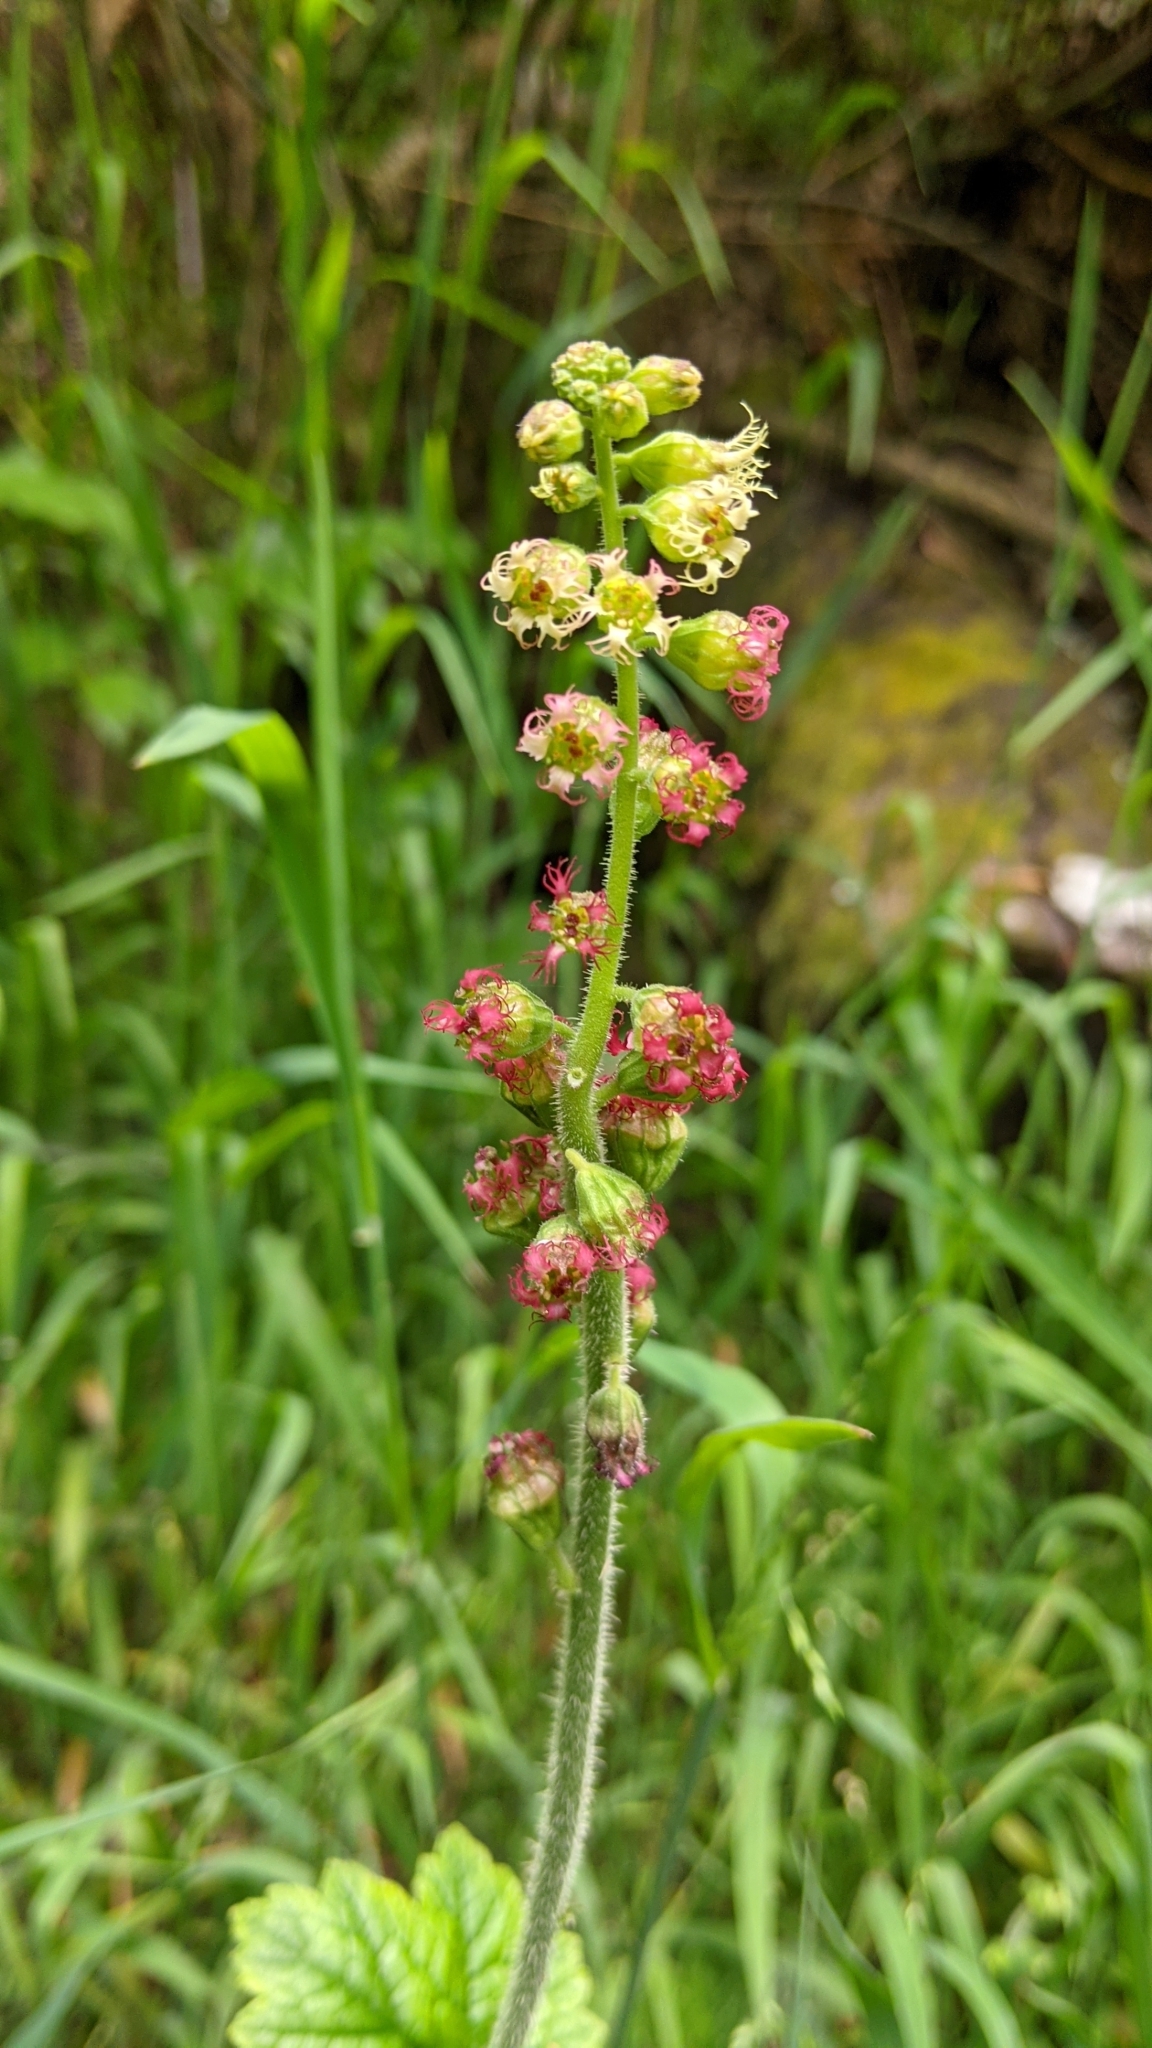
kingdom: Plantae
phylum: Tracheophyta
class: Magnoliopsida
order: Saxifragales
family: Saxifragaceae
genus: Tellima
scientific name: Tellima grandiflora
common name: Fringecups
